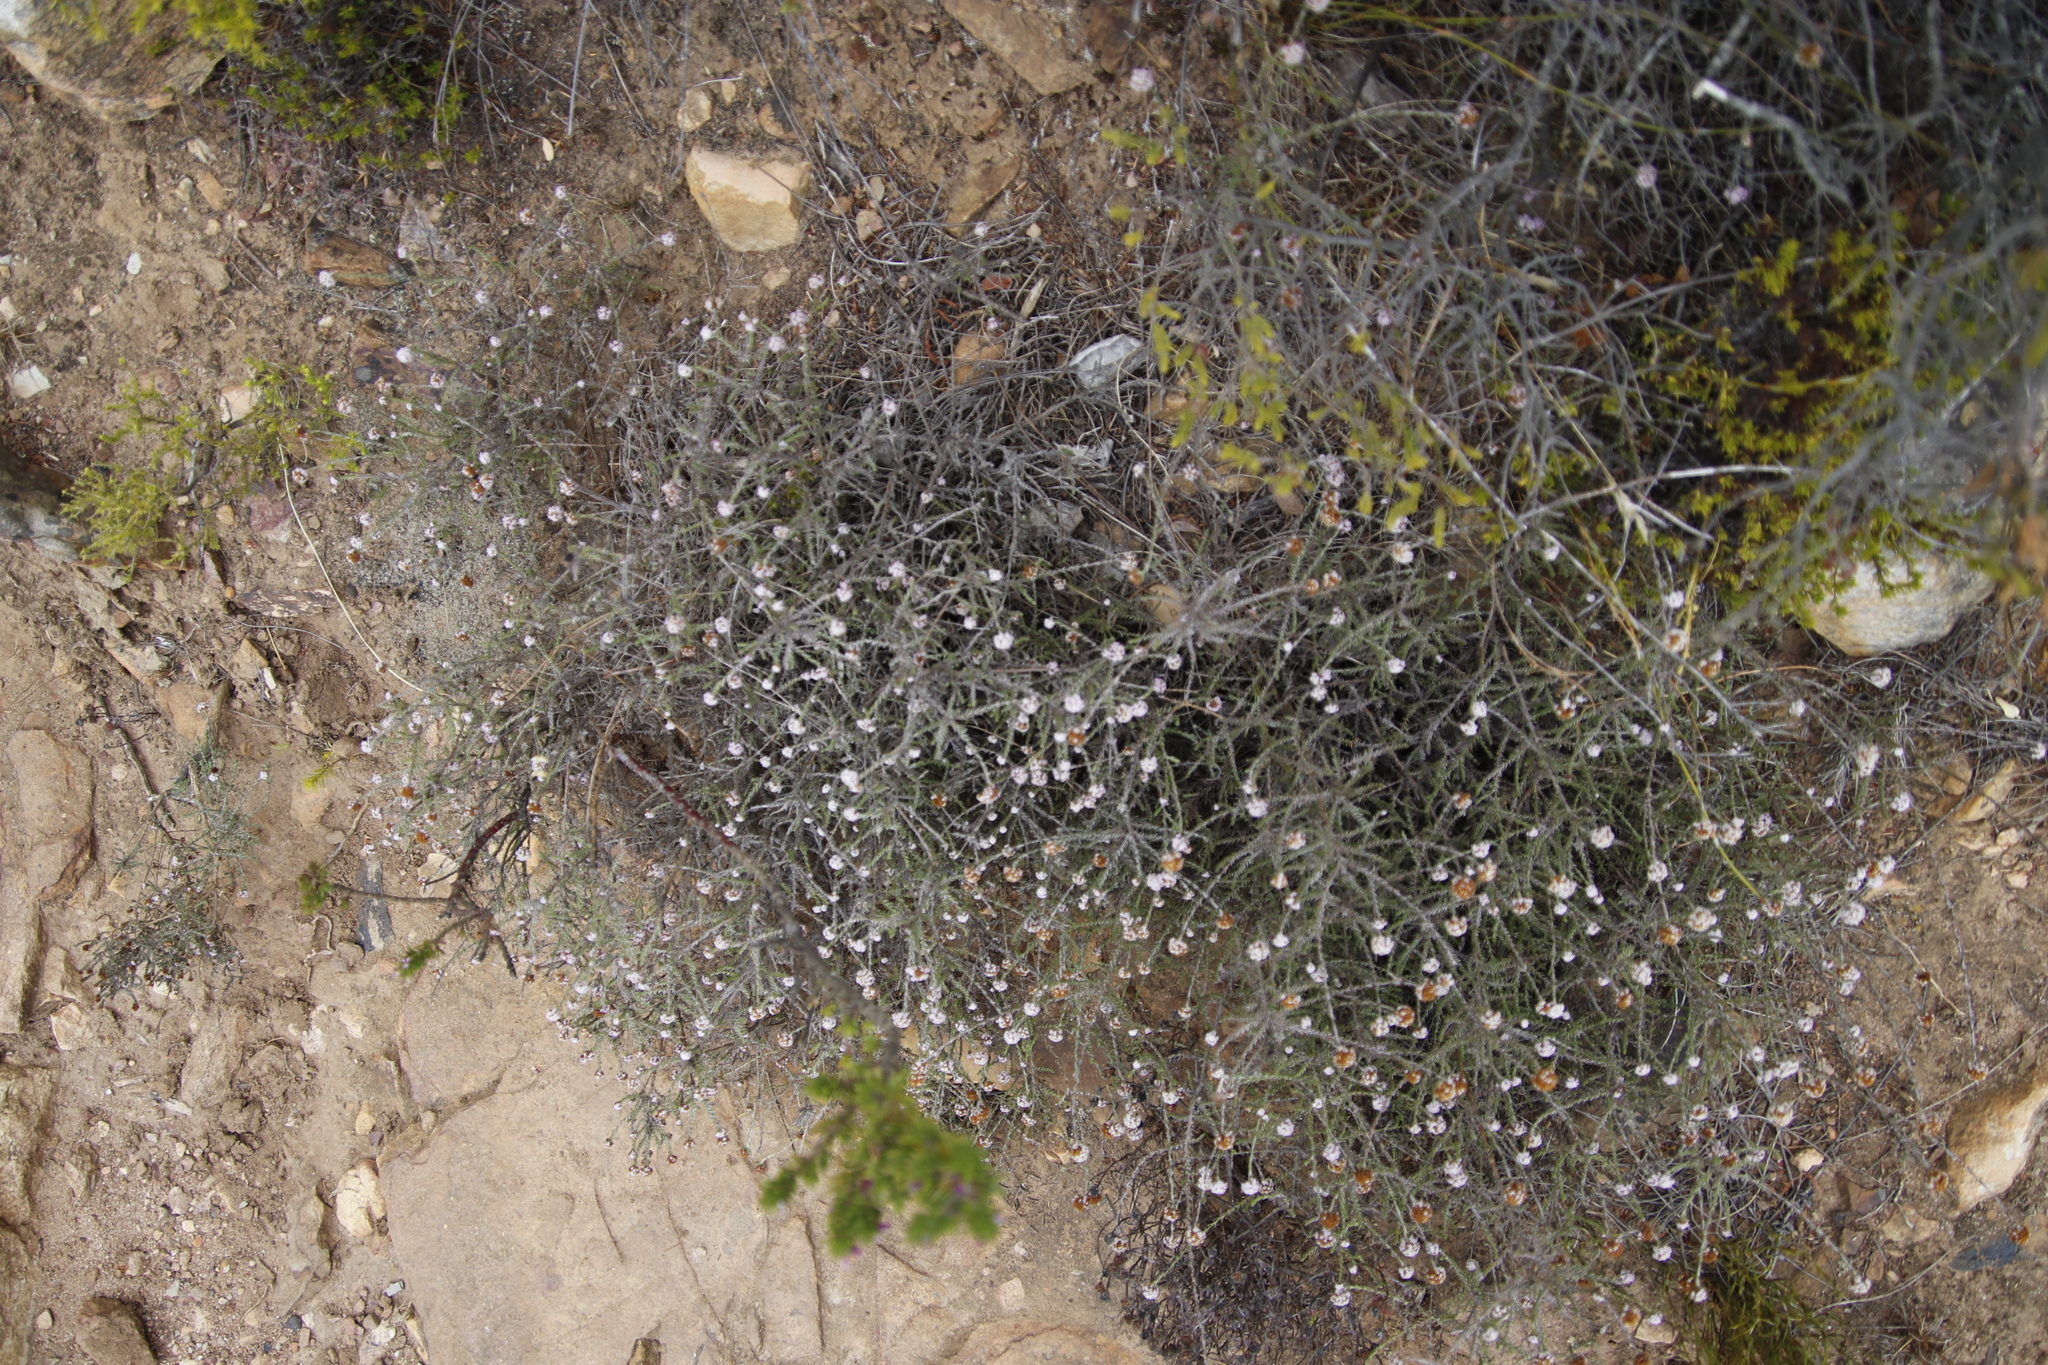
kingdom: Plantae
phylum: Tracheophyta
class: Magnoliopsida
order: Asterales
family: Asteraceae
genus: Stoebe
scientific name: Stoebe capitata
